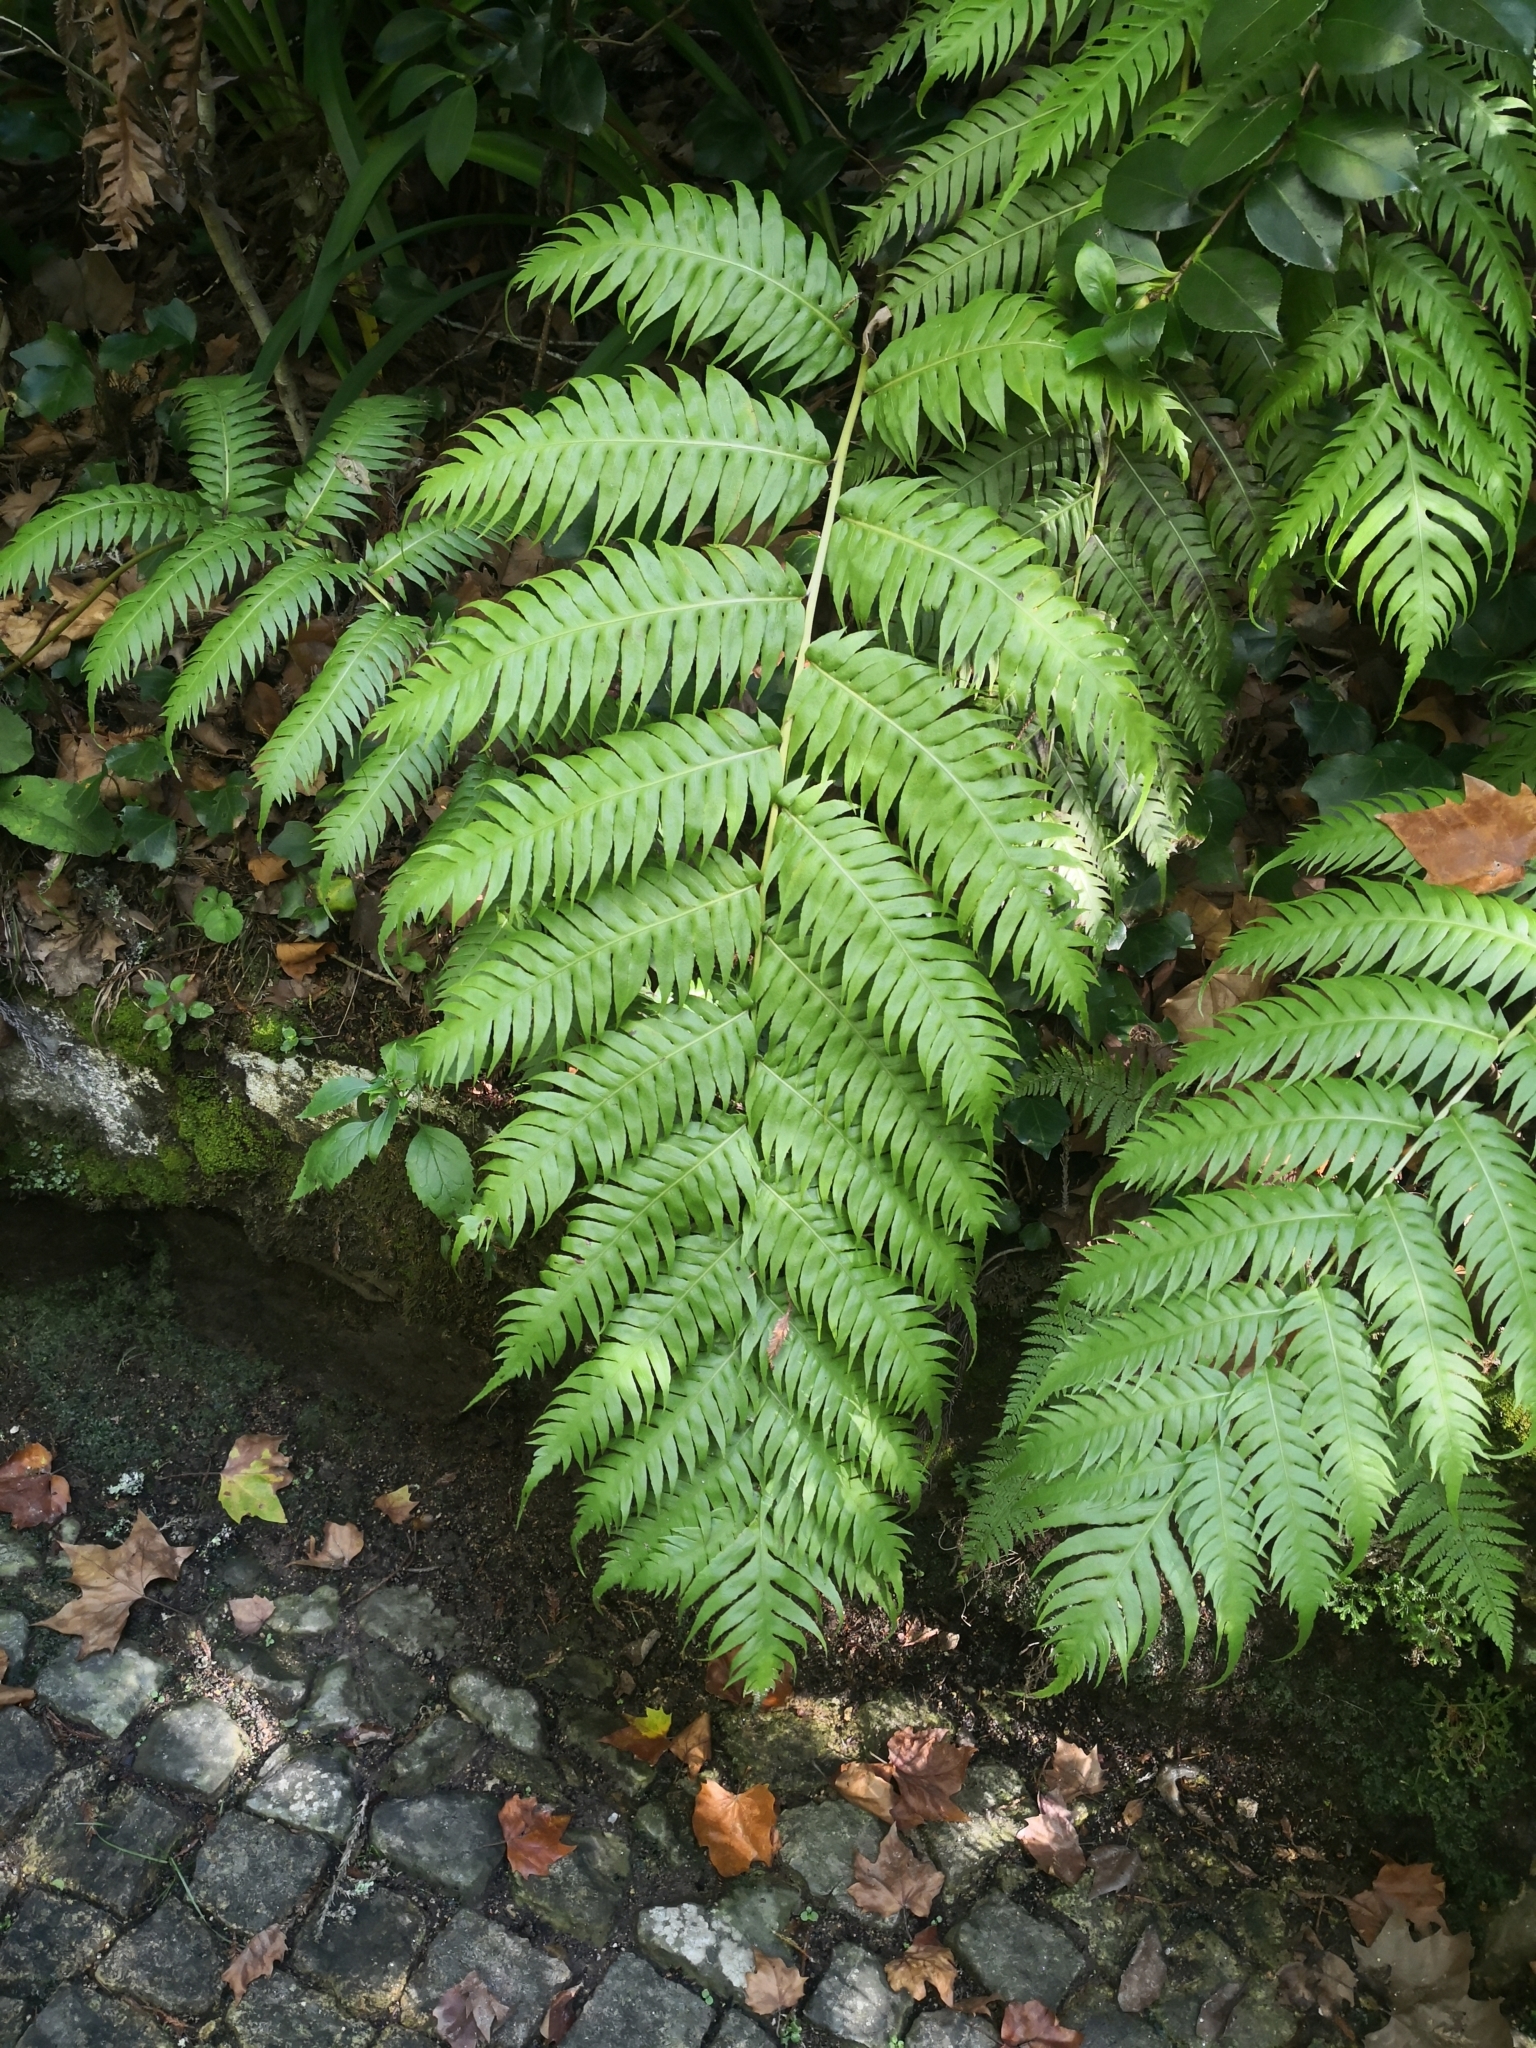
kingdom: Plantae
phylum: Tracheophyta
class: Polypodiopsida
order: Polypodiales
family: Blechnaceae
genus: Woodwardia
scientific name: Woodwardia radicans
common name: Rooting chainfern
